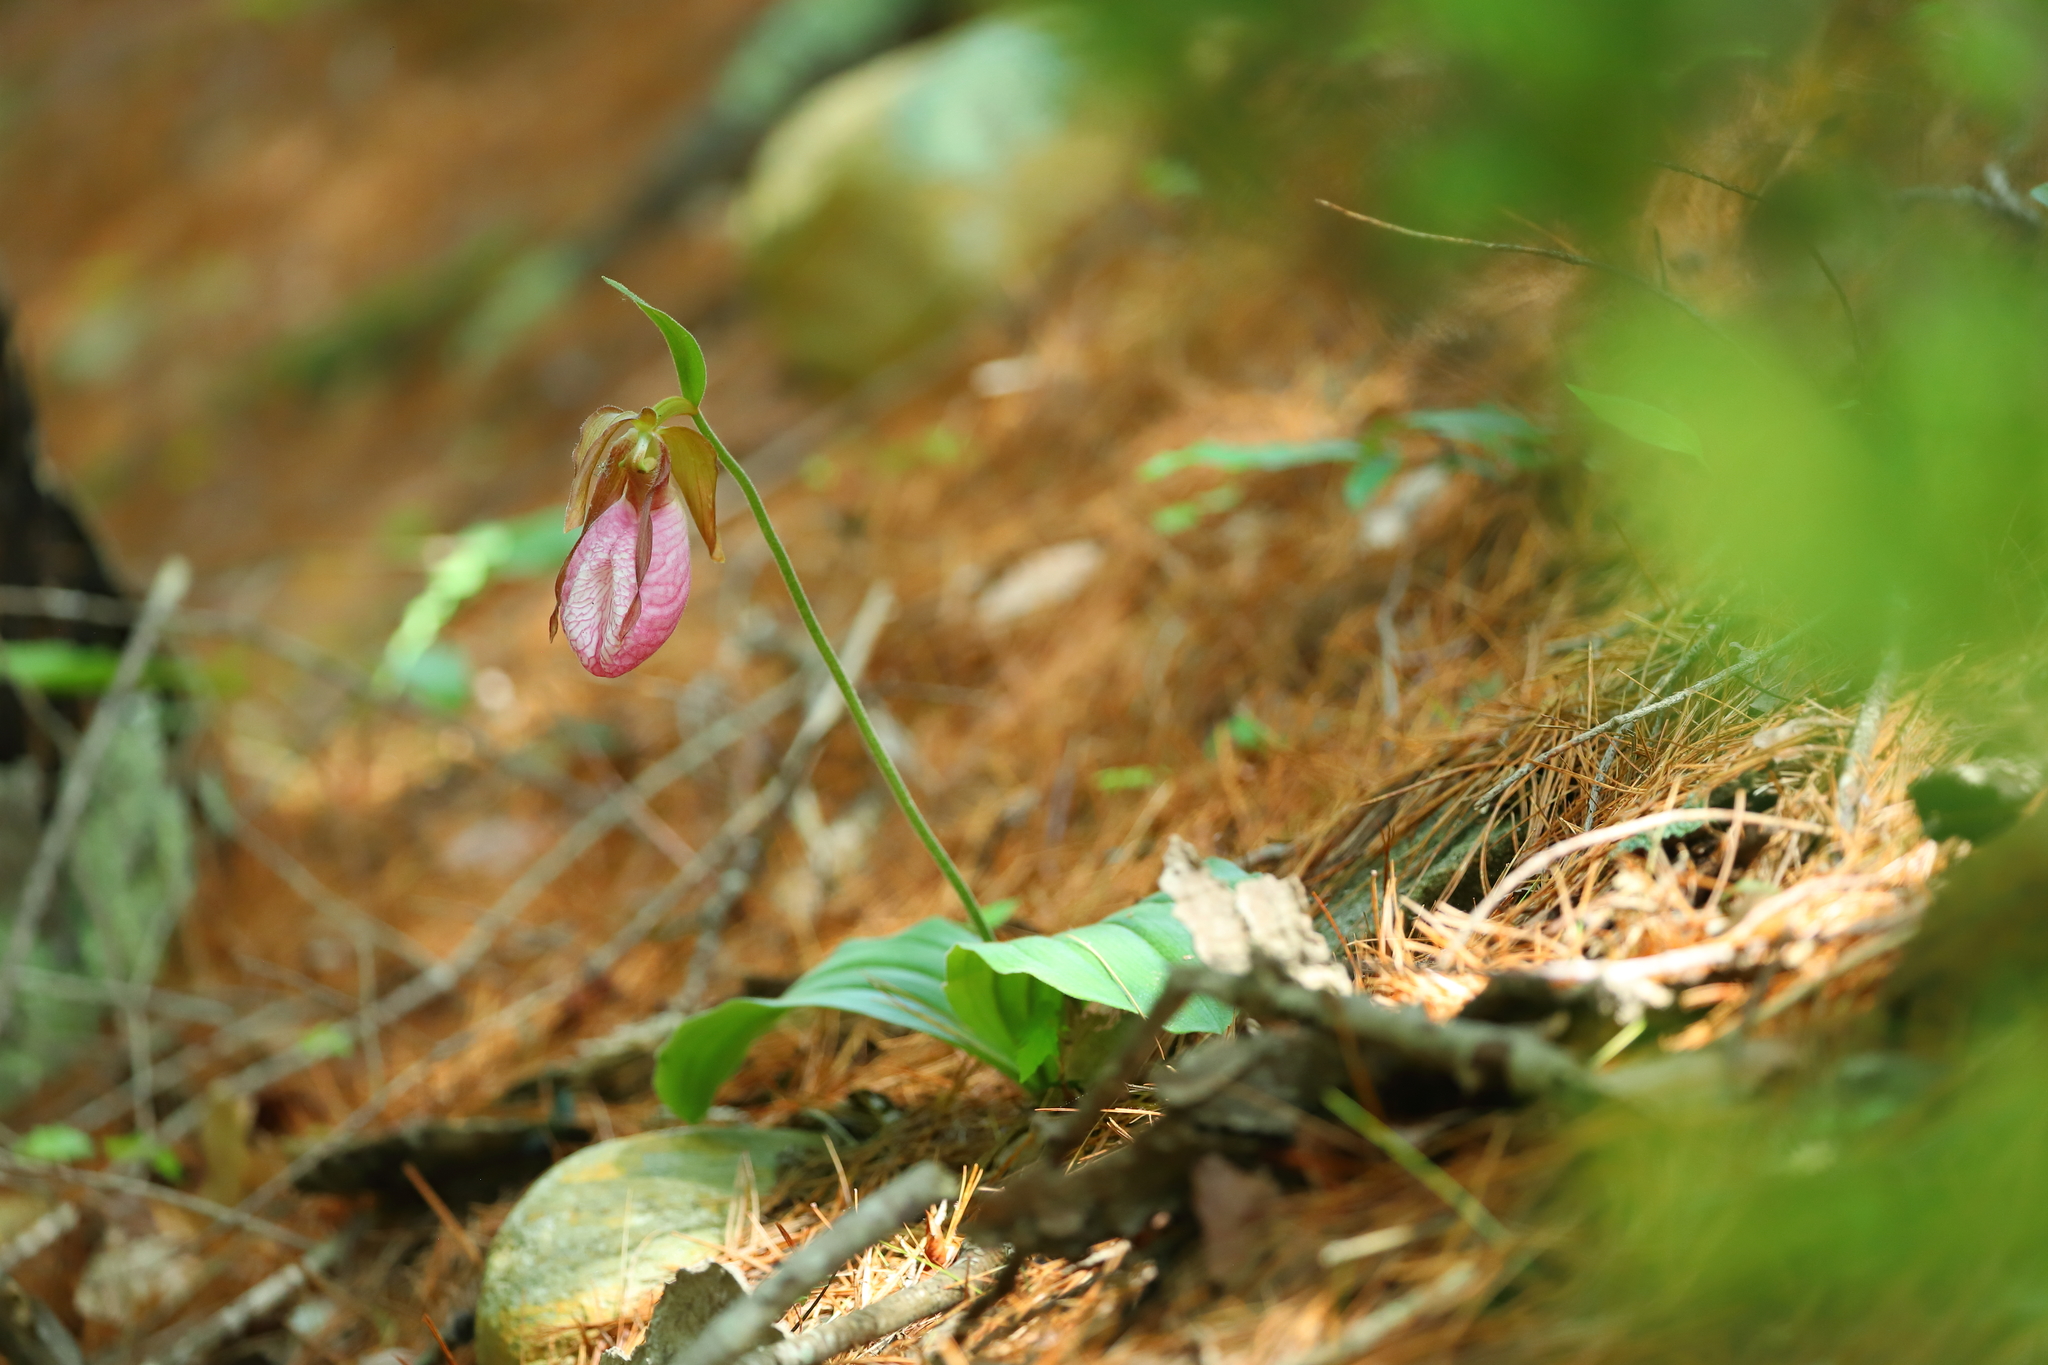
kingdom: Plantae
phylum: Tracheophyta
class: Liliopsida
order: Asparagales
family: Orchidaceae
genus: Cypripedium
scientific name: Cypripedium acaule
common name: Pink lady's-slipper
